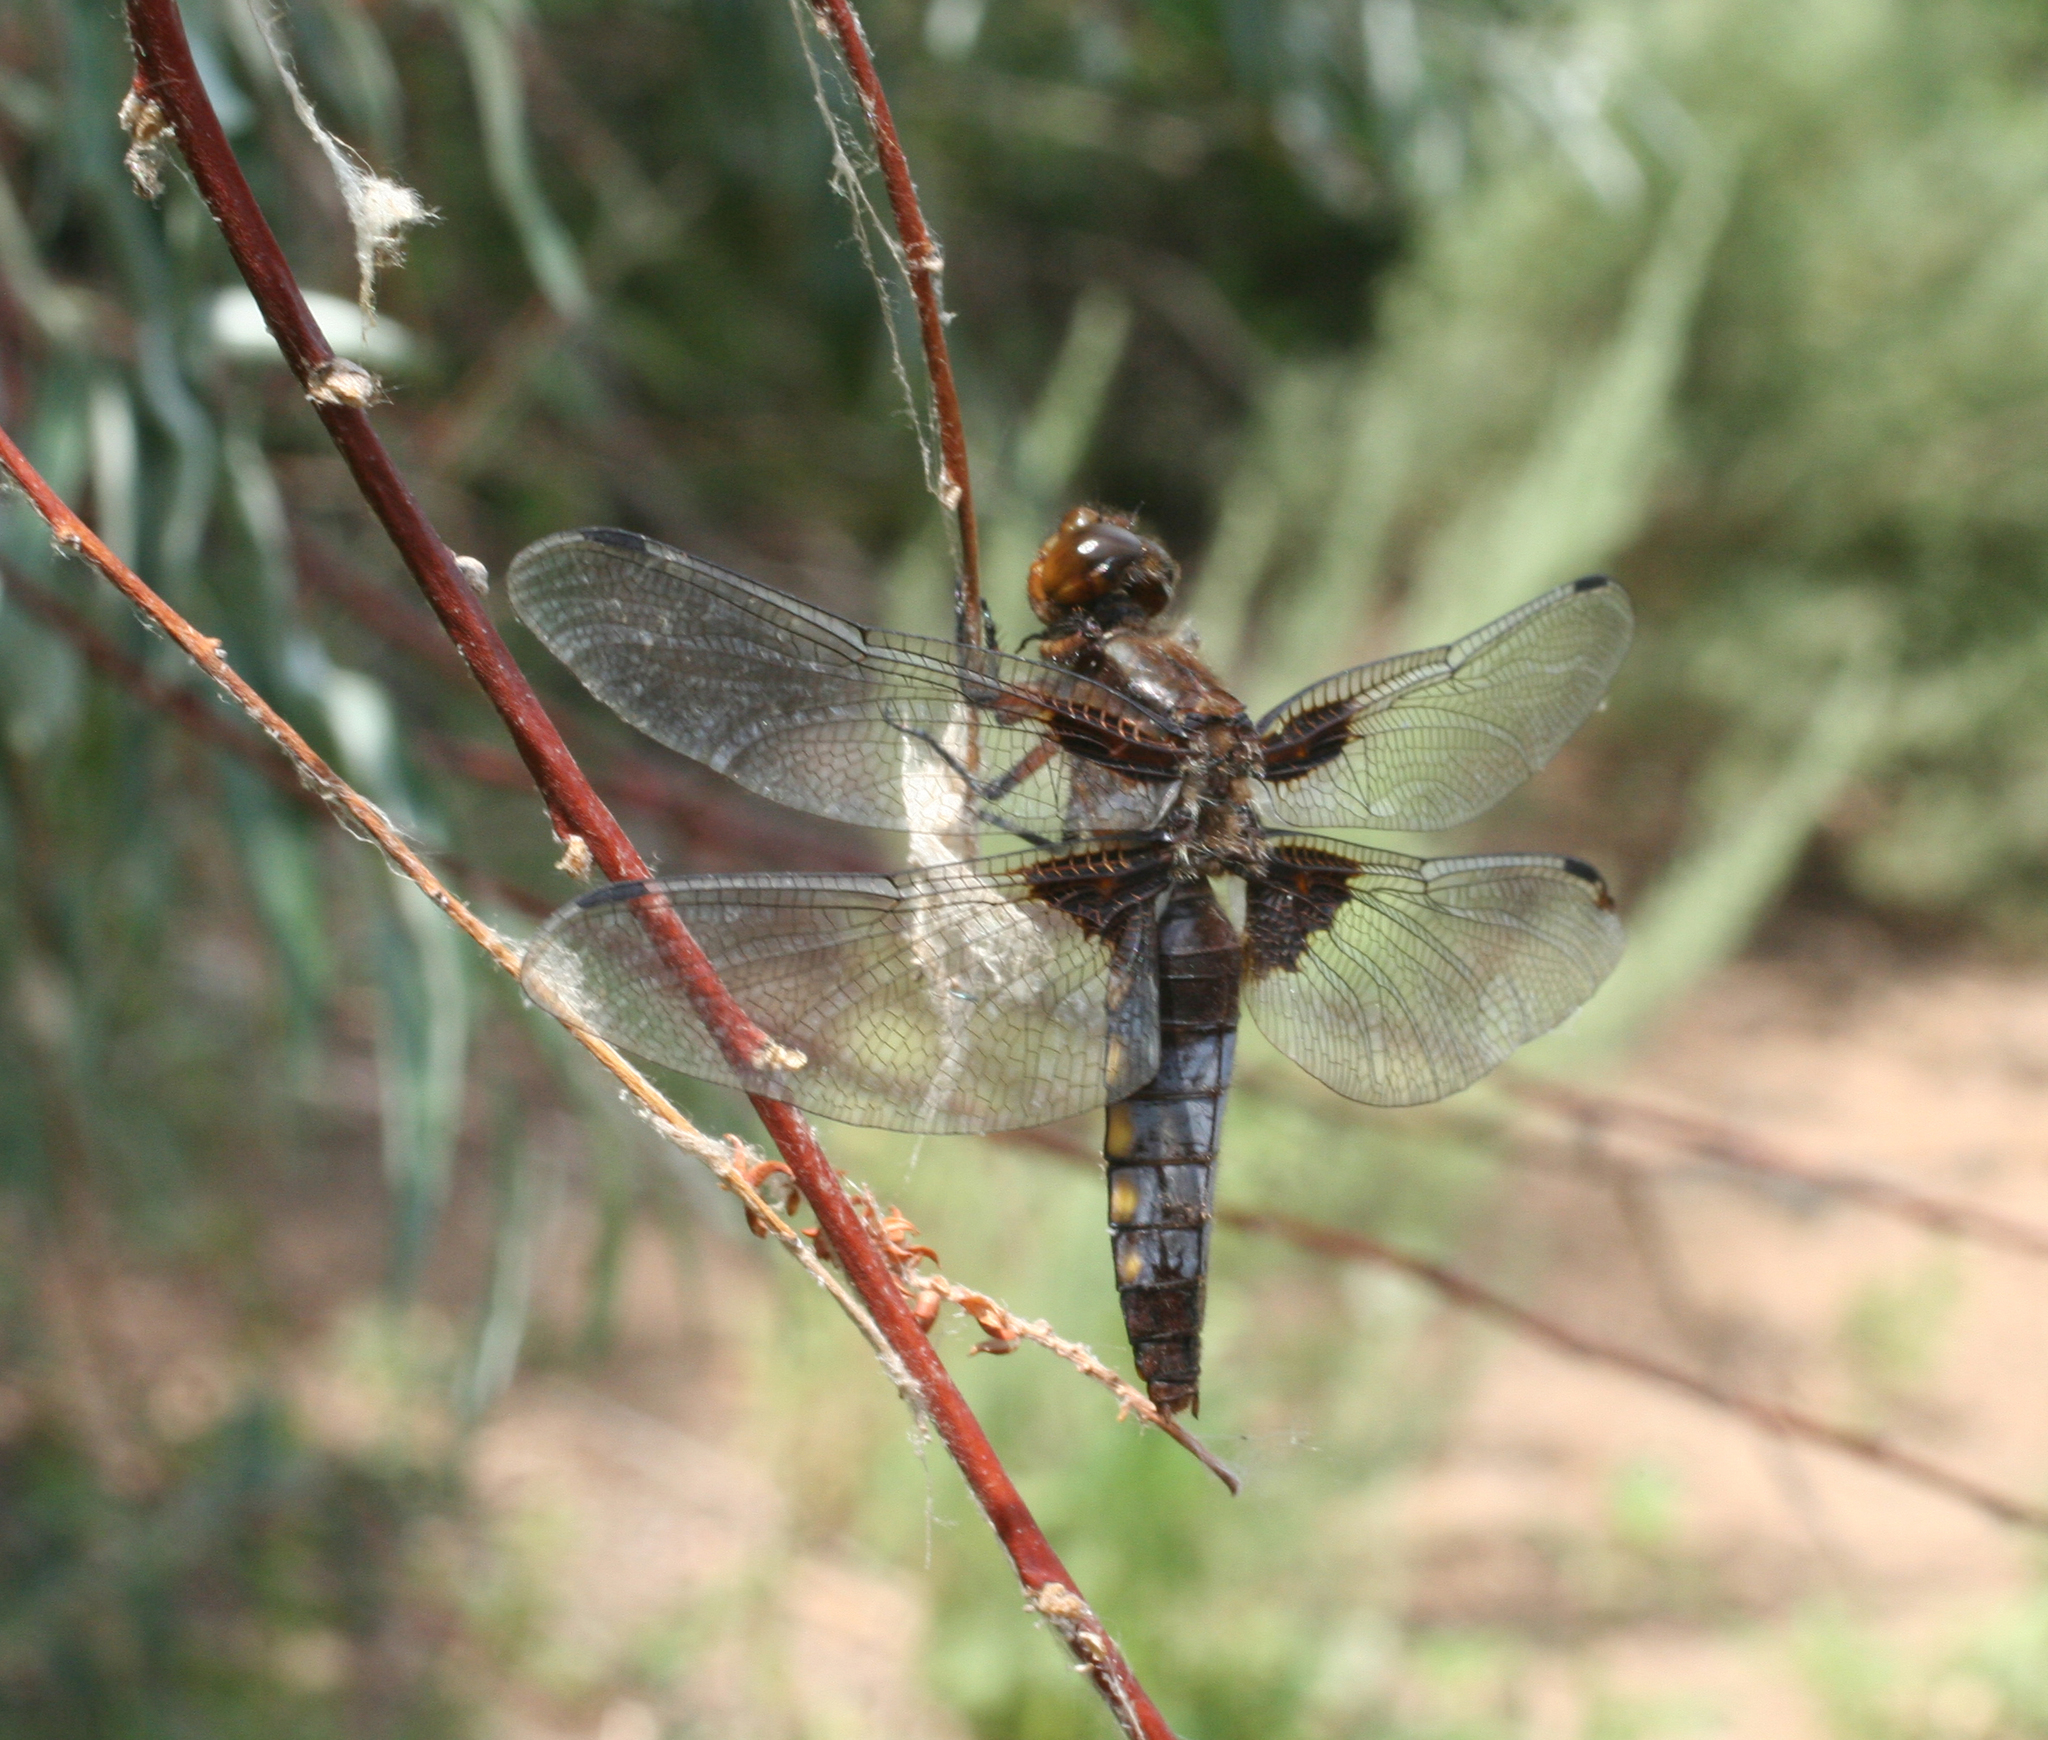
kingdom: Animalia
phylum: Arthropoda
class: Insecta
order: Odonata
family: Libellulidae
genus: Libellula
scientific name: Libellula depressa
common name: Broad-bodied chaser
